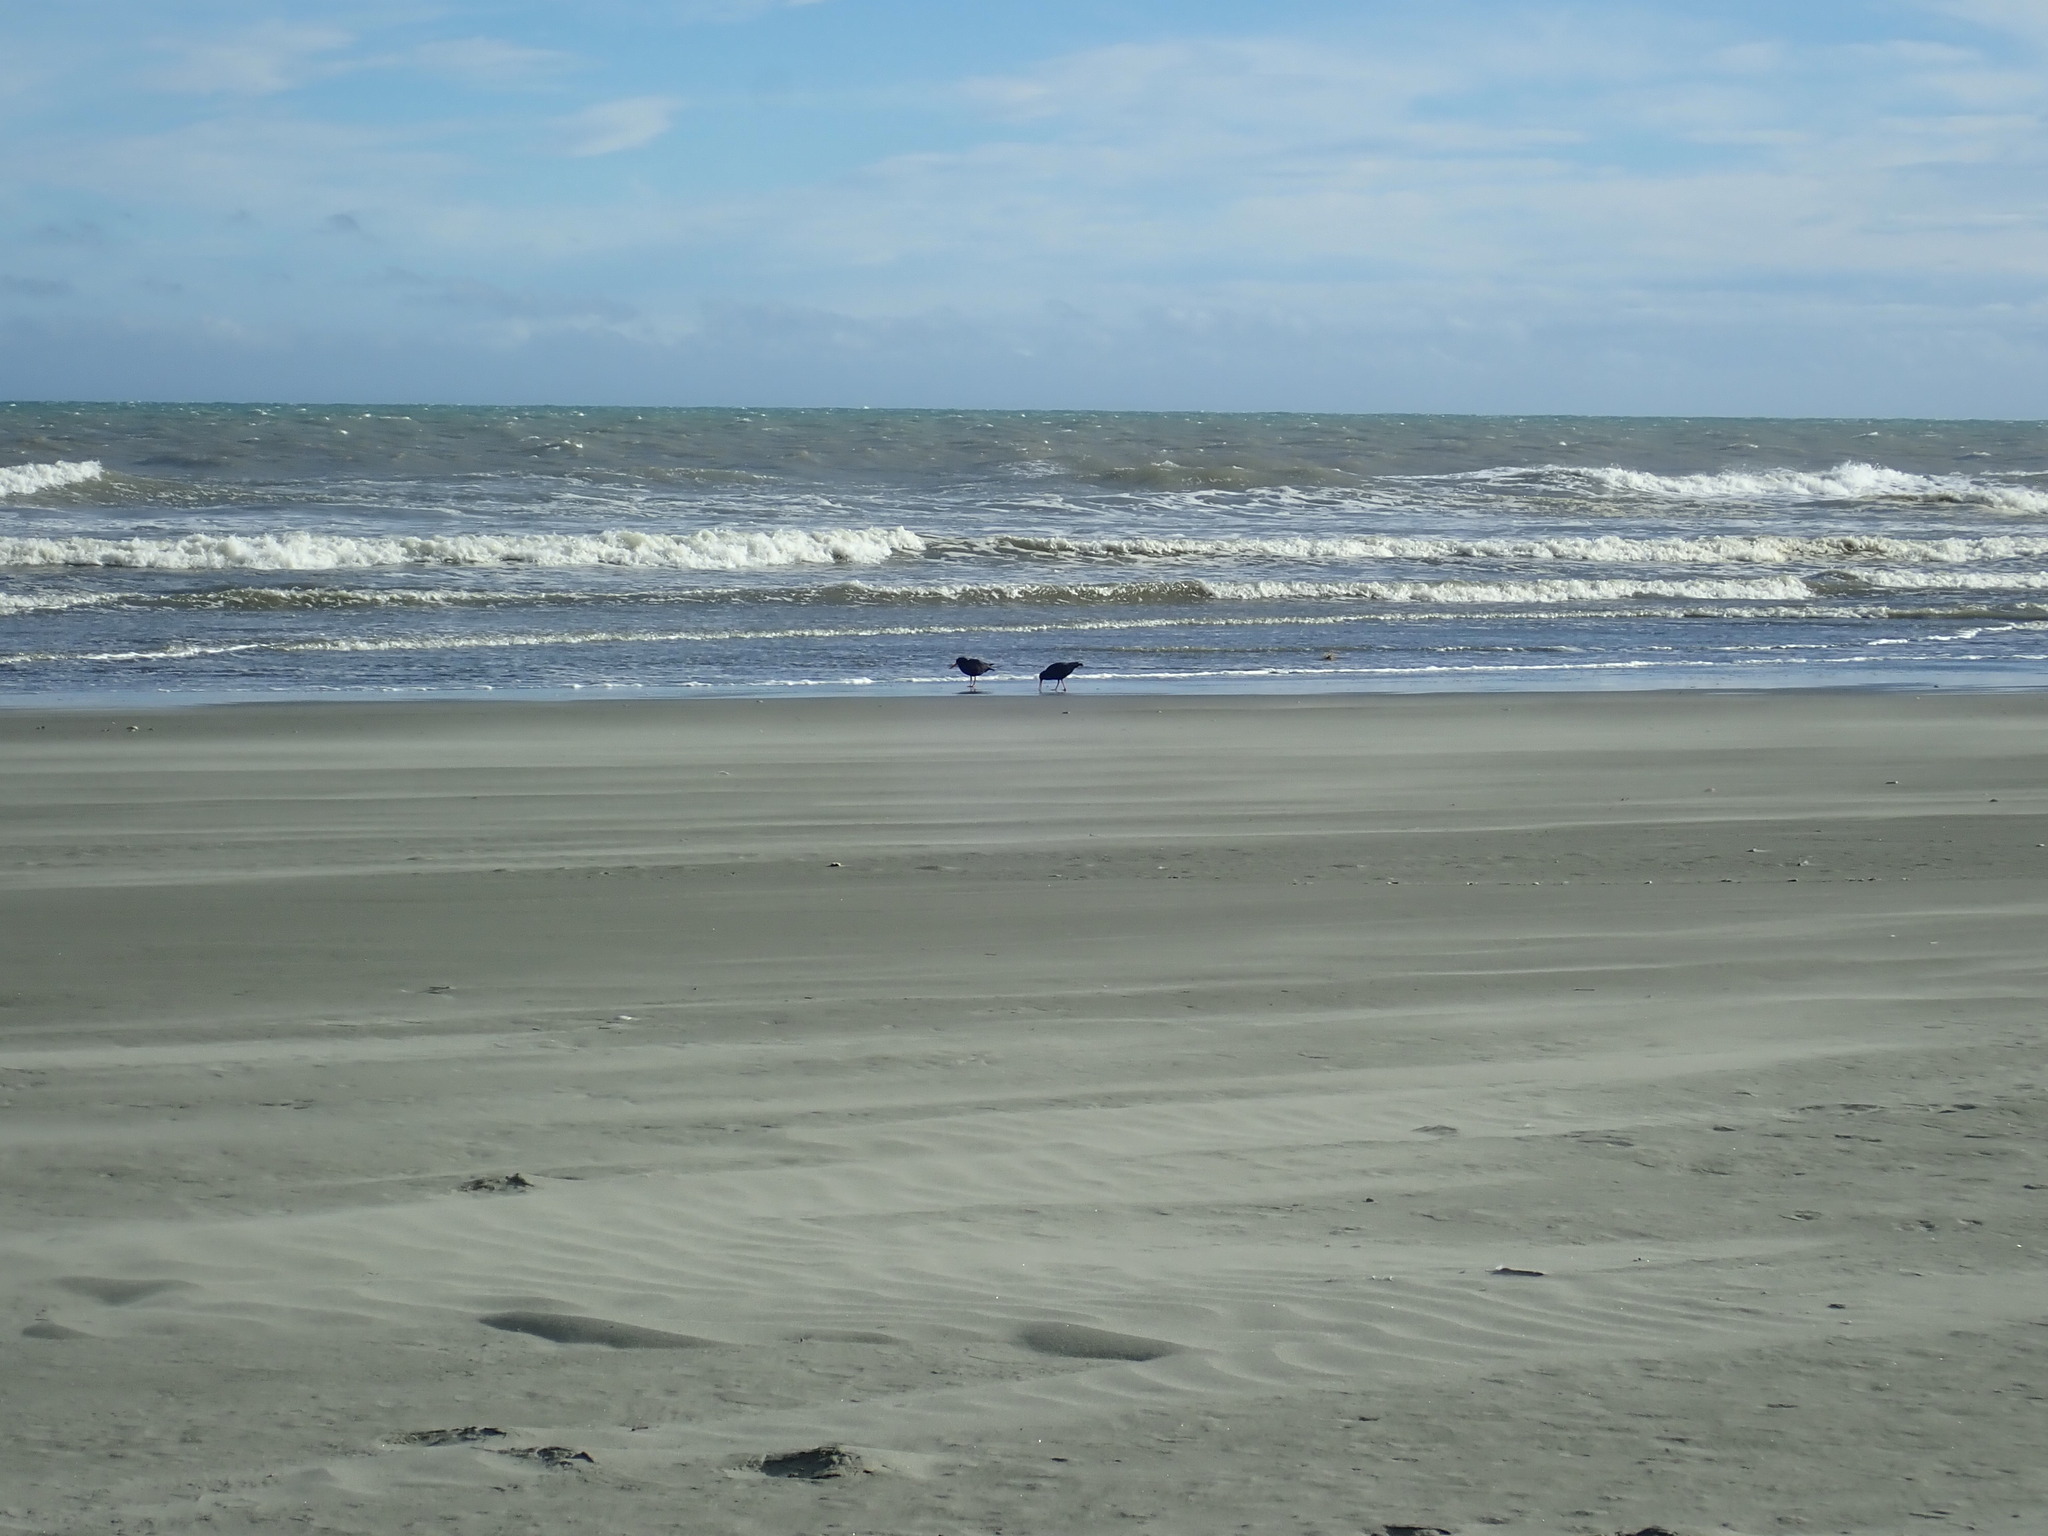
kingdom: Animalia
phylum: Chordata
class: Aves
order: Charadriiformes
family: Haematopodidae
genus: Haematopus
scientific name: Haematopus unicolor
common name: Variable oystercatcher
